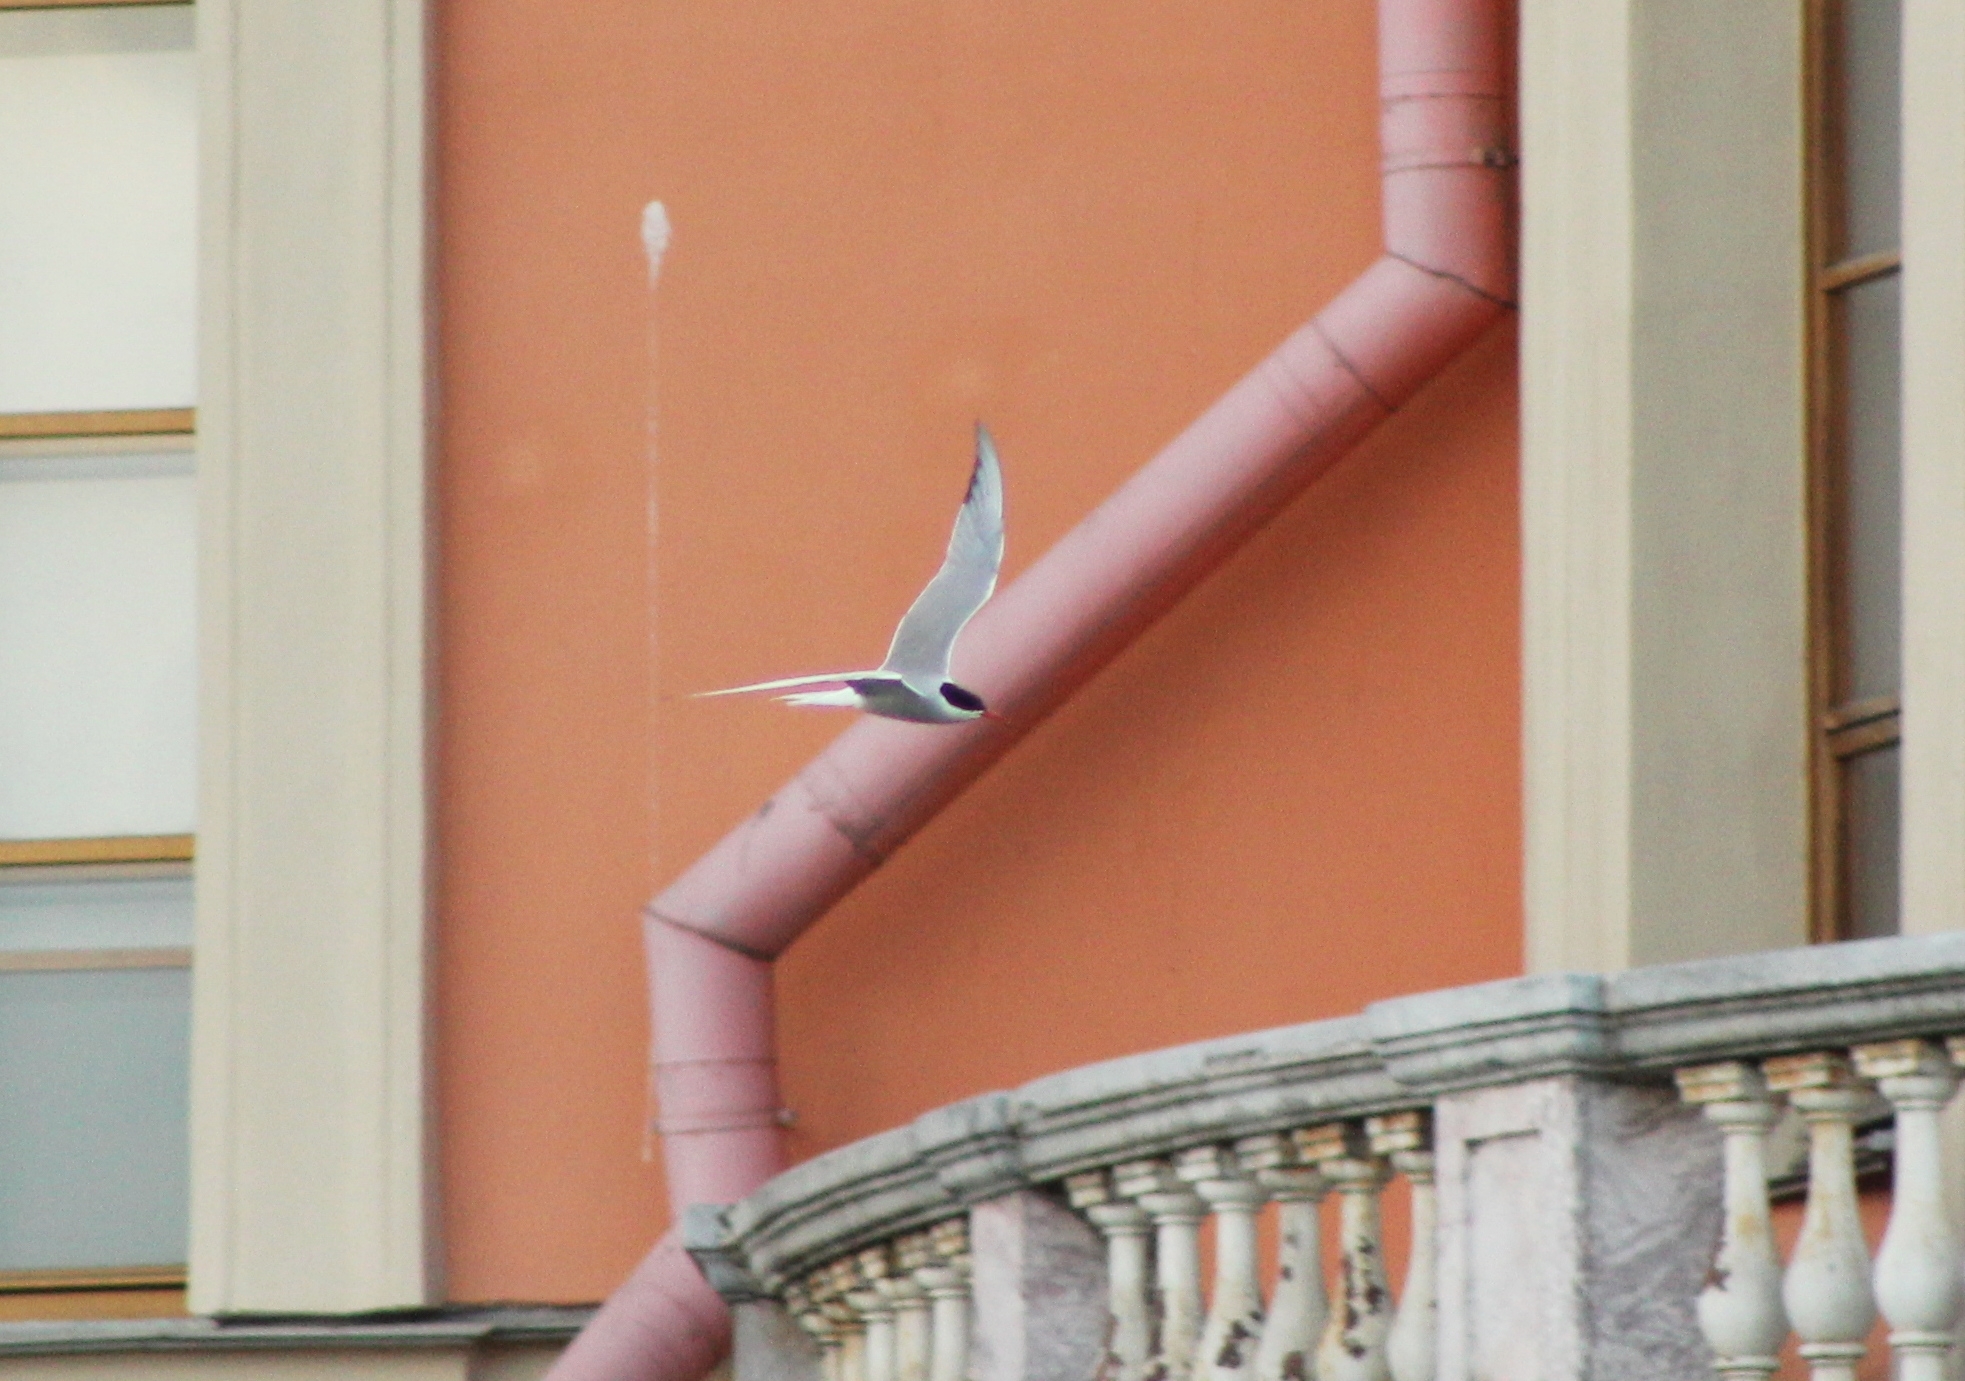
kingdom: Animalia
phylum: Chordata
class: Aves
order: Charadriiformes
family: Laridae
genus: Sterna
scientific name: Sterna hirundo
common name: Common tern
